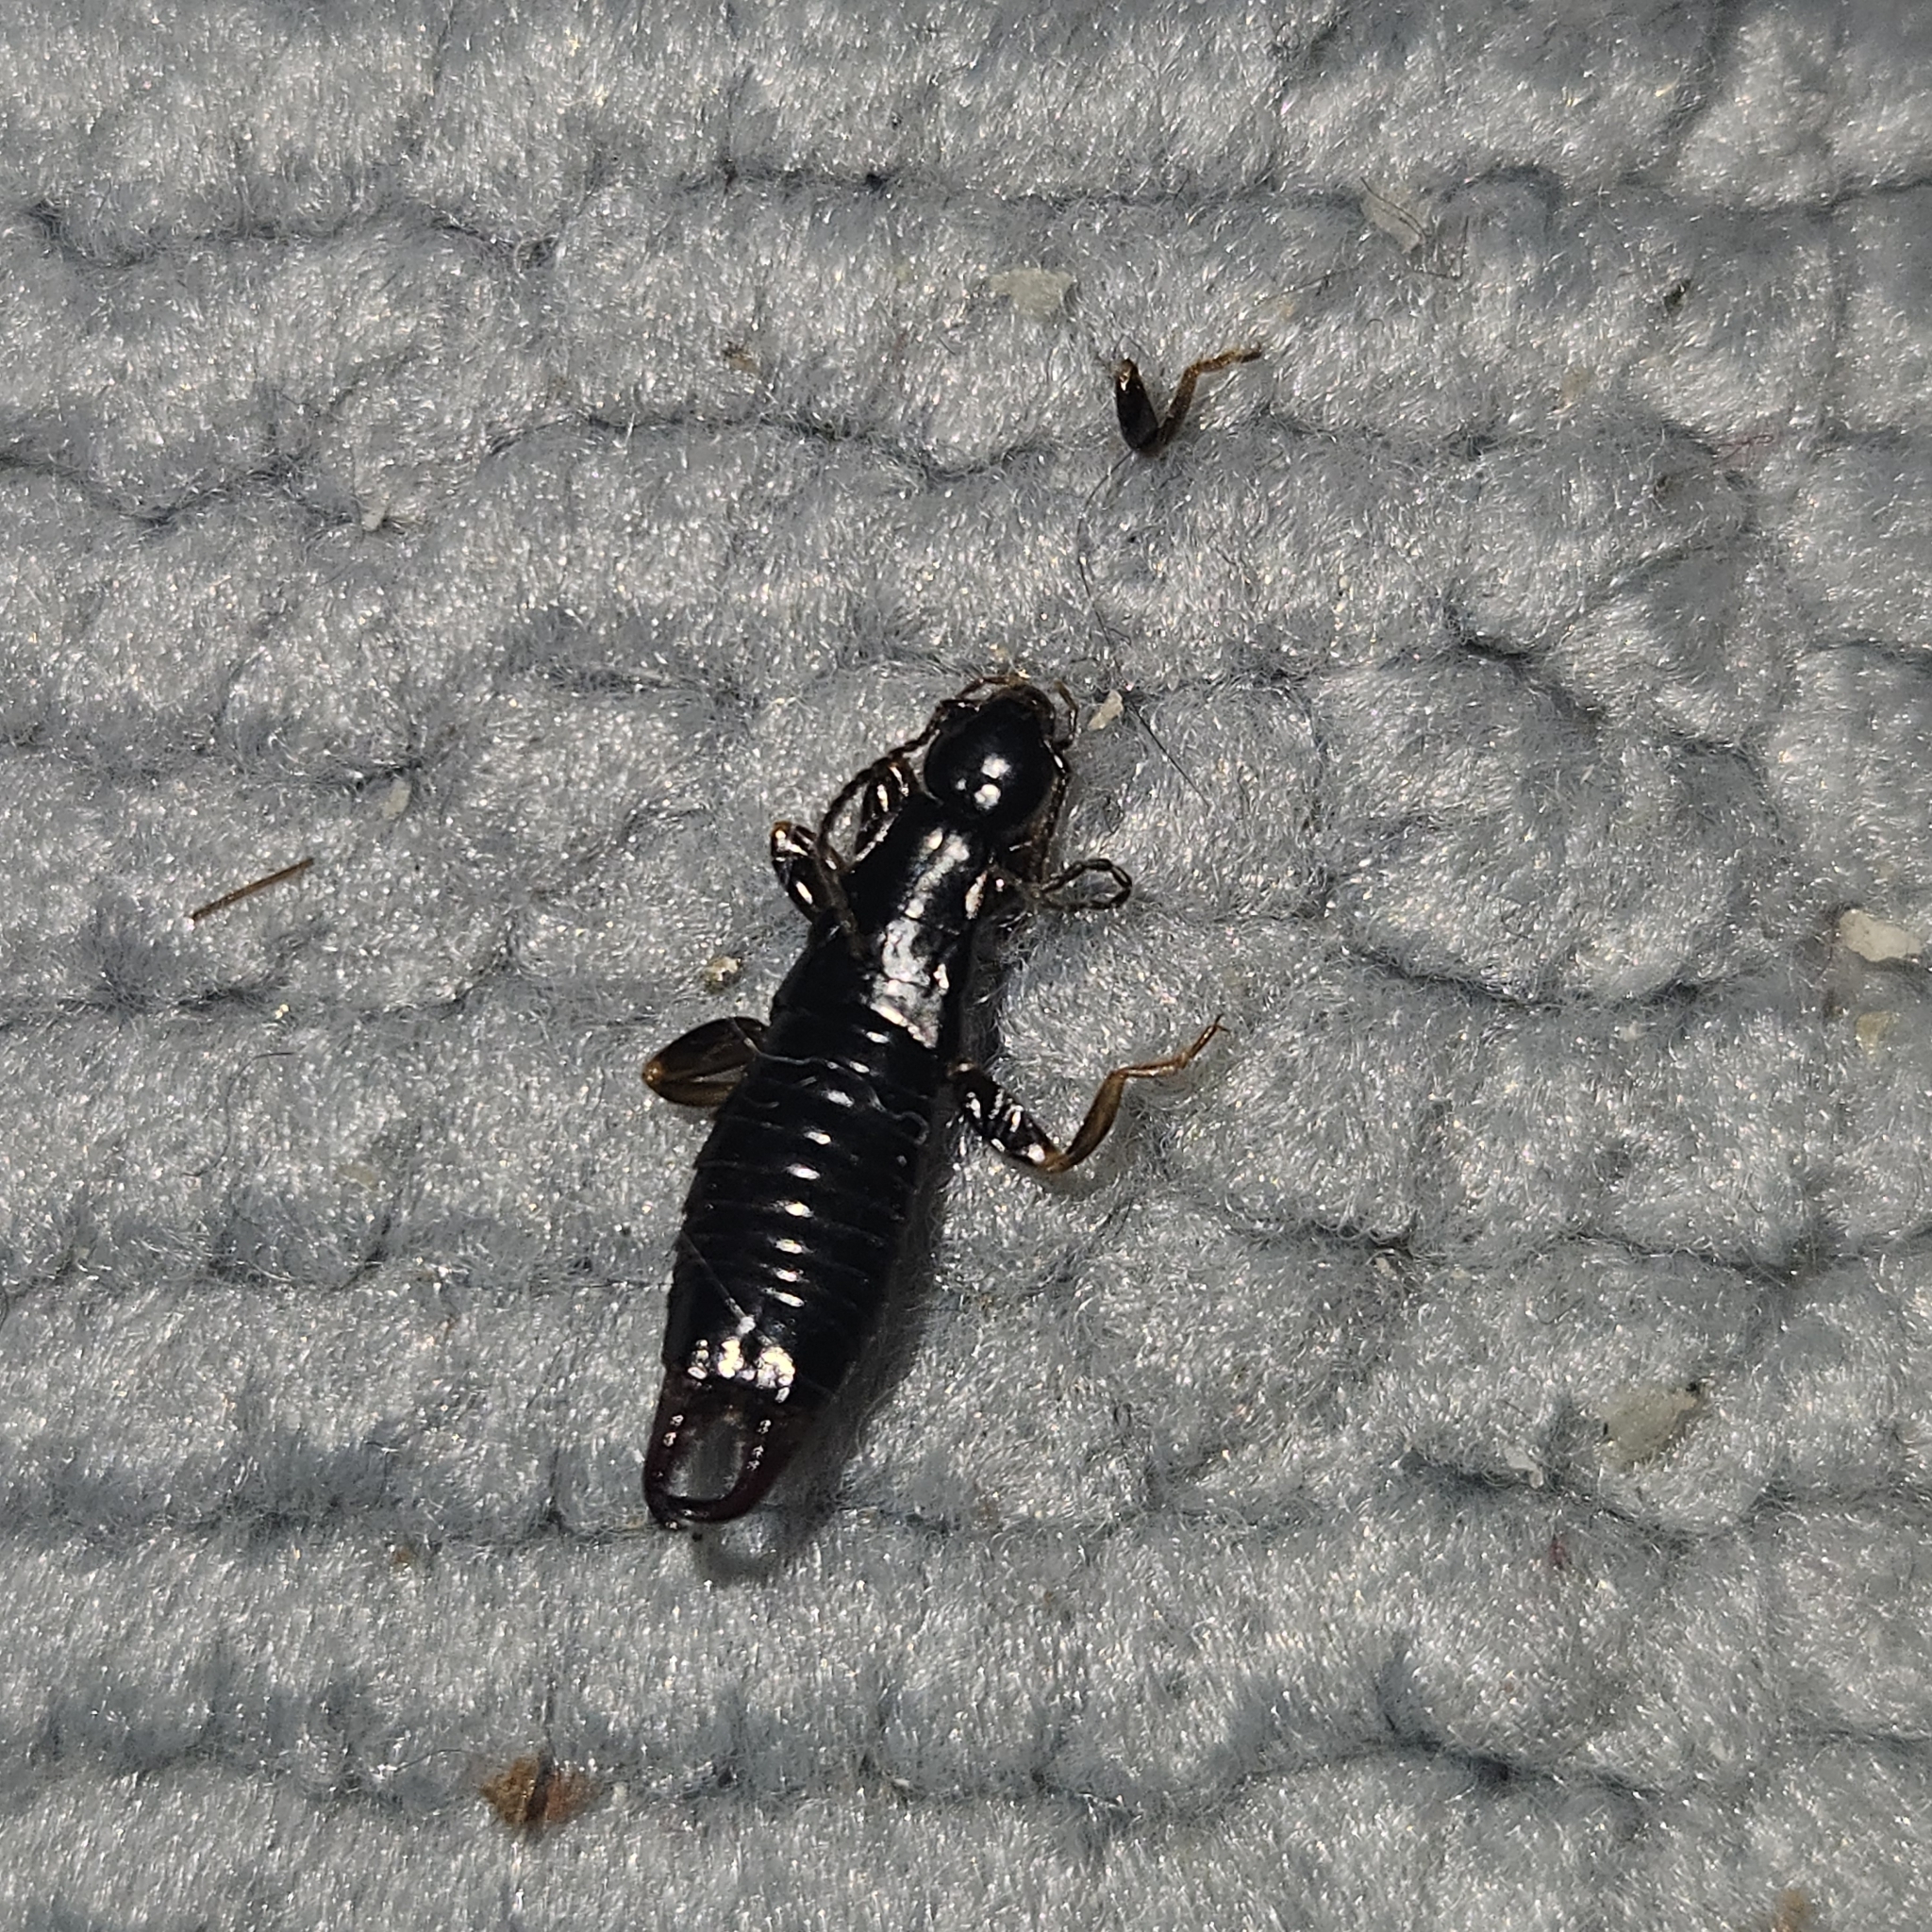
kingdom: Animalia
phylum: Arthropoda
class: Insecta
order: Dermaptera
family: Anisolabididae
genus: Euborellia
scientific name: Euborellia moesta
